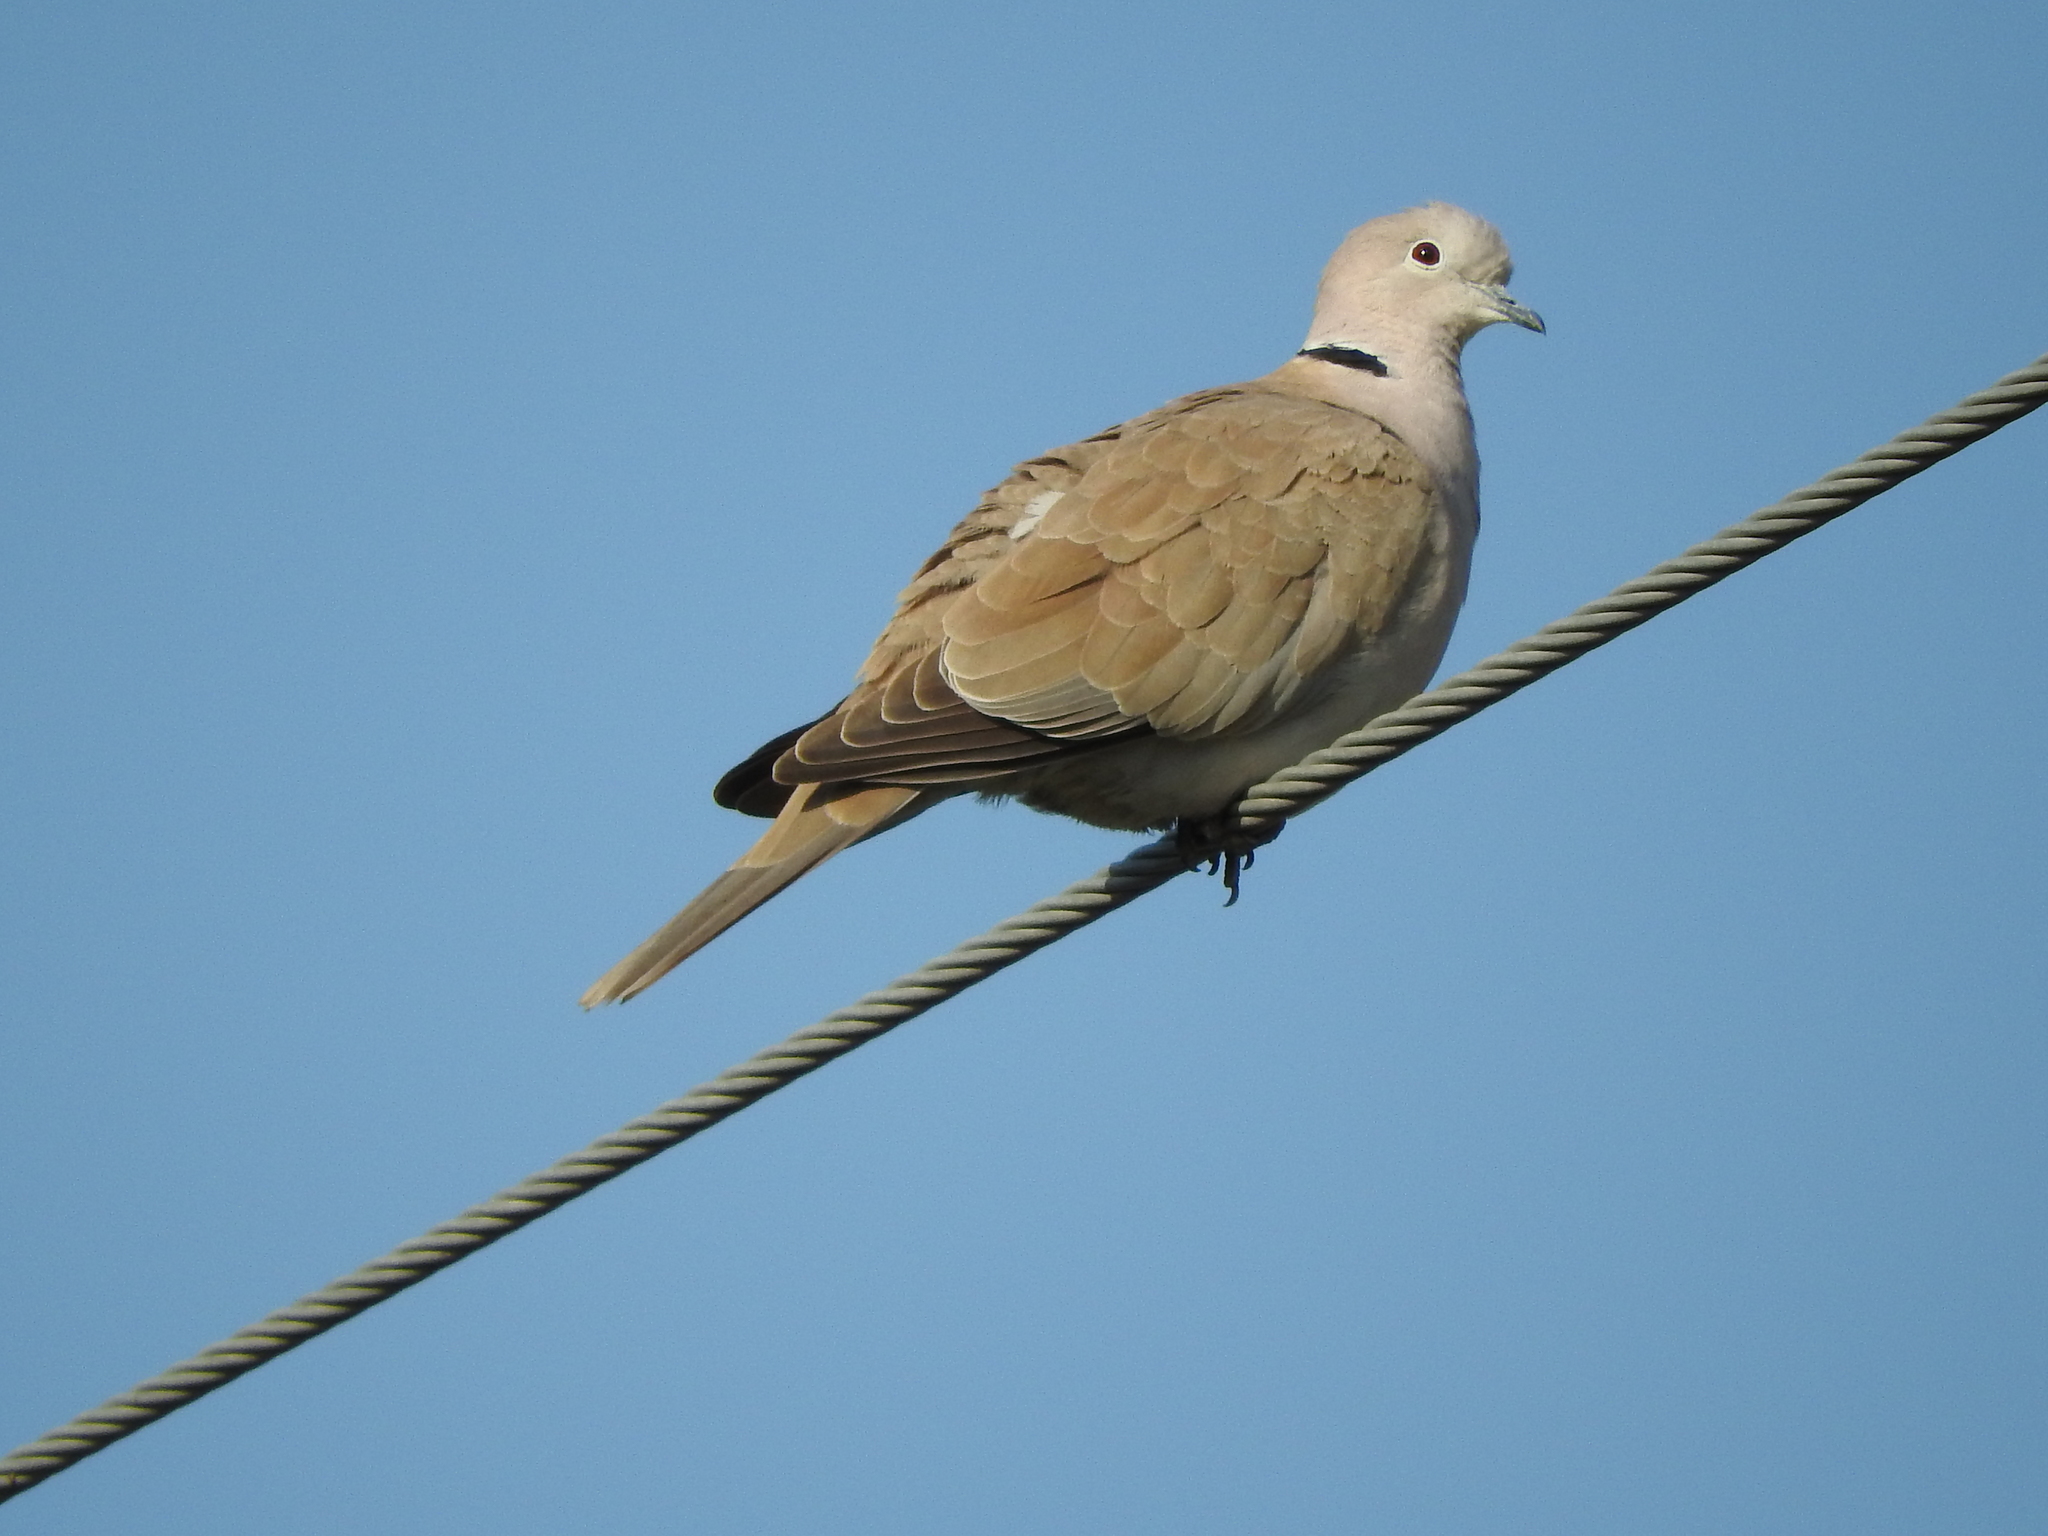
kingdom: Animalia
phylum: Chordata
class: Aves
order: Columbiformes
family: Columbidae
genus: Streptopelia
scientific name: Streptopelia decaocto
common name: Eurasian collared dove
